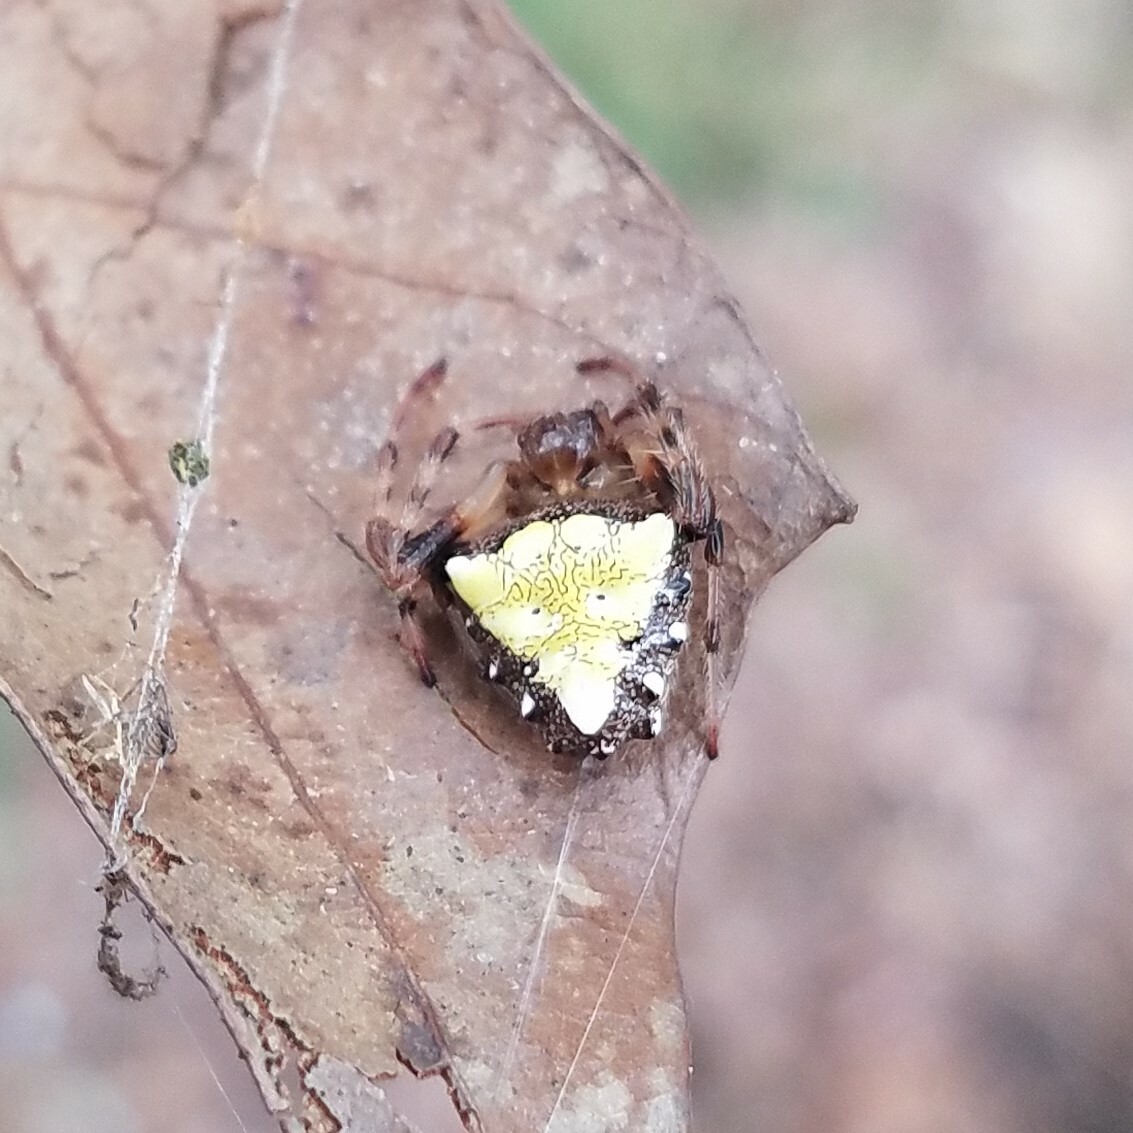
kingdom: Animalia
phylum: Arthropoda
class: Arachnida
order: Araneae
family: Araneidae
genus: Verrucosa
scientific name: Verrucosa arenata
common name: Orb weavers
